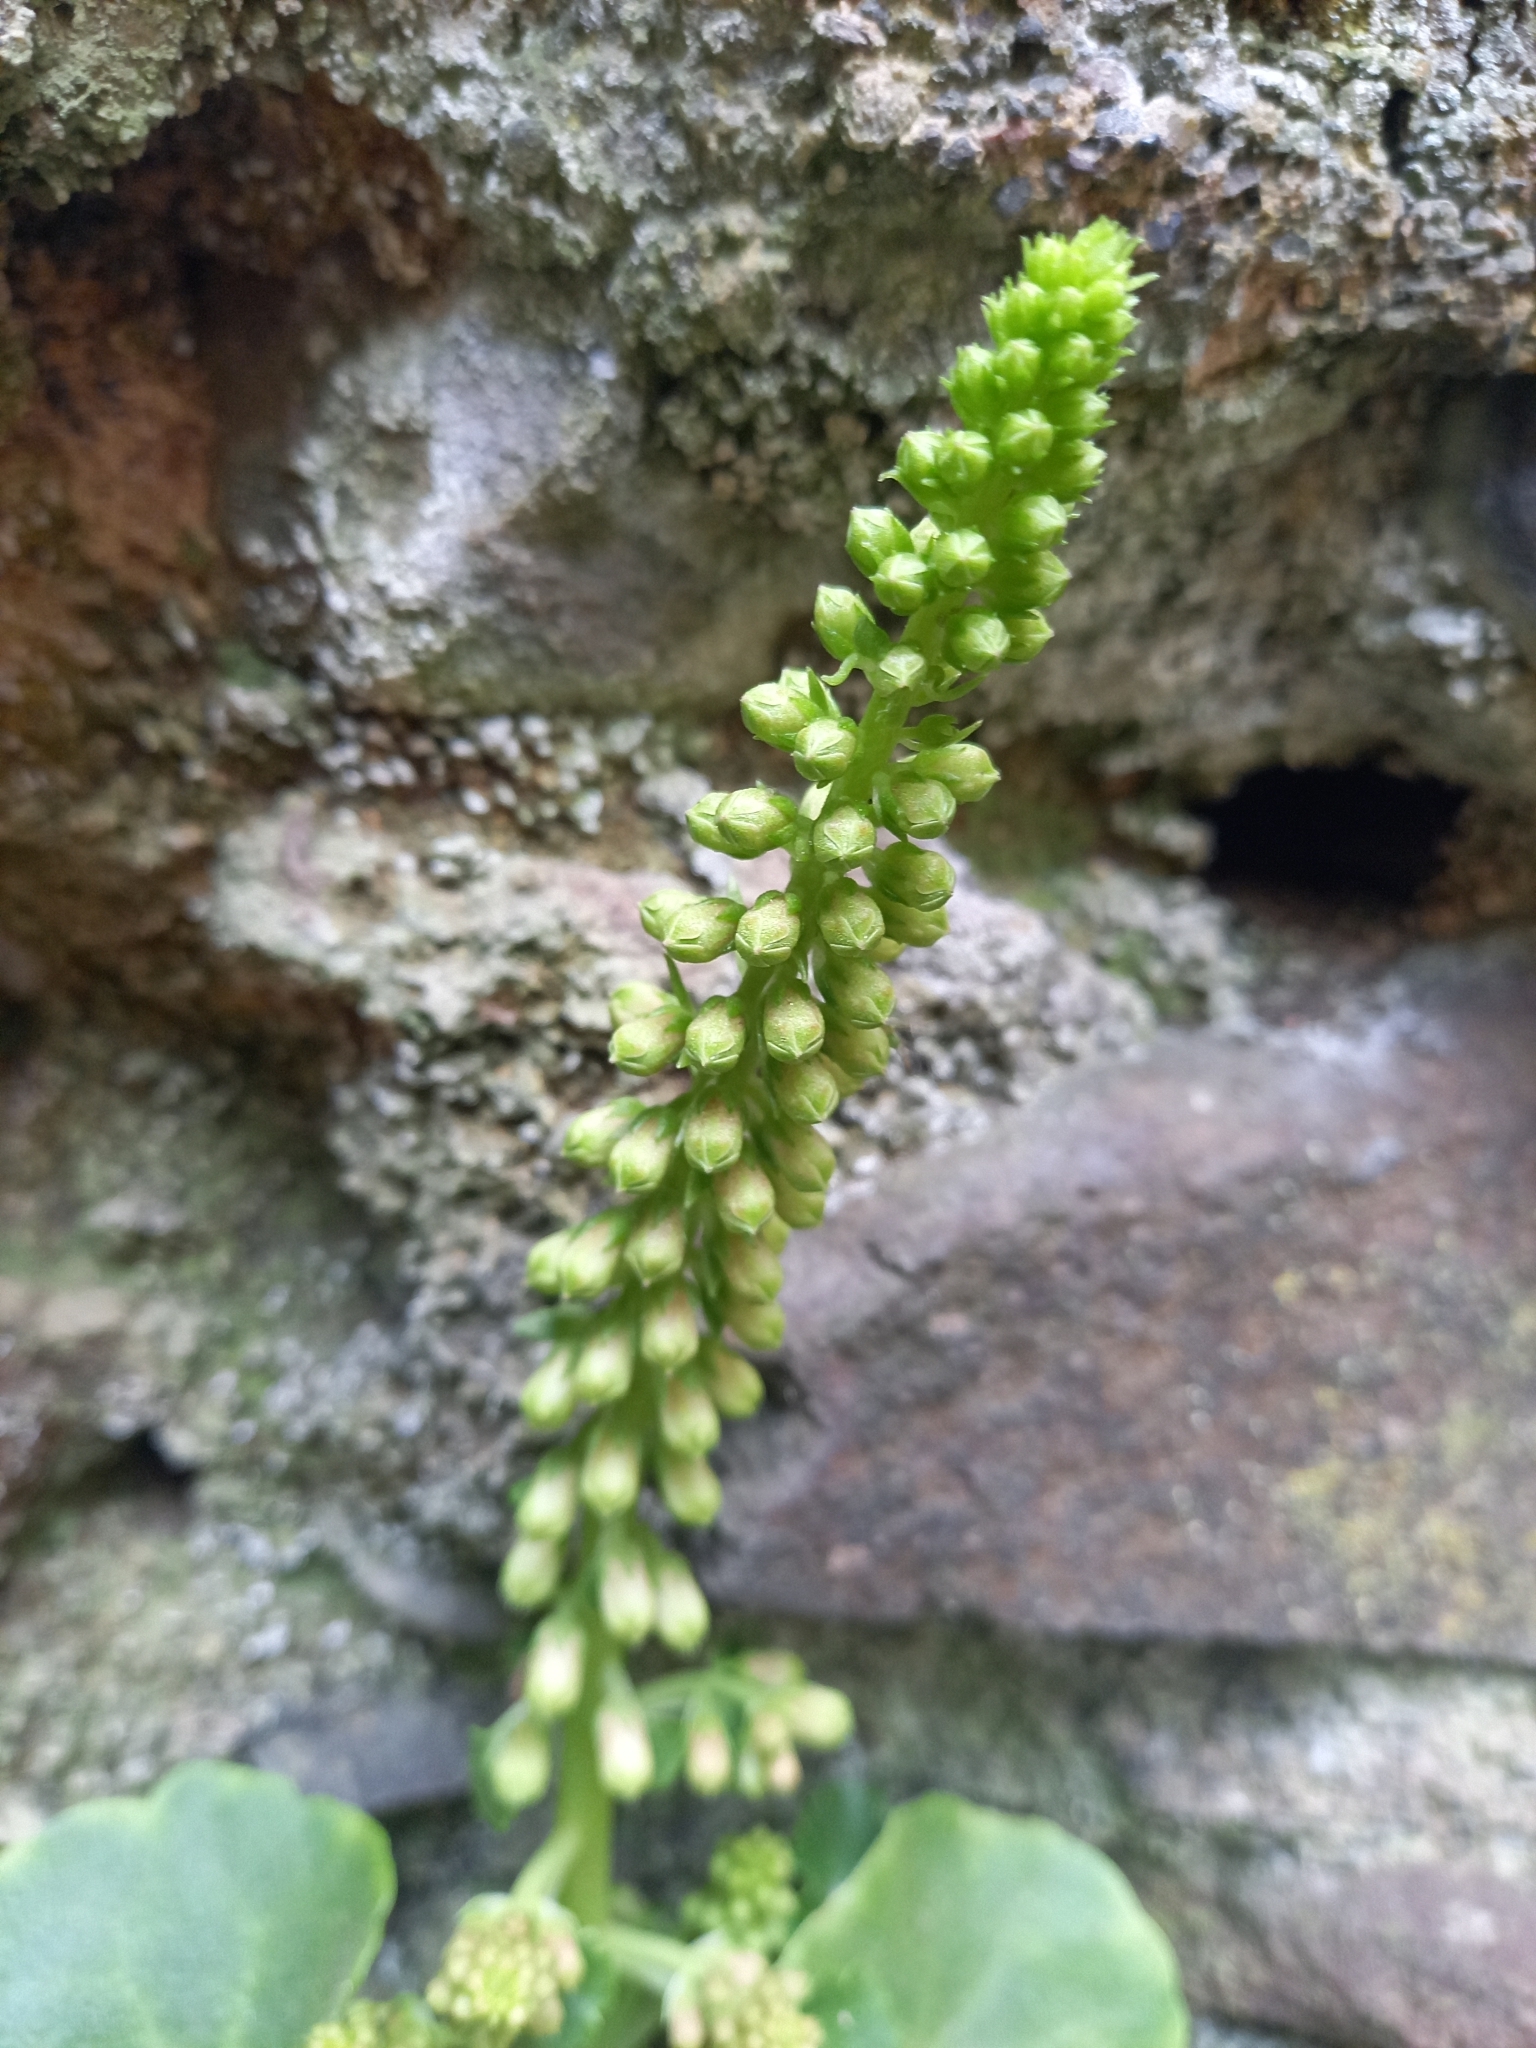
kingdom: Plantae
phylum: Tracheophyta
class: Magnoliopsida
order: Saxifragales
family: Crassulaceae
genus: Umbilicus
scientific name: Umbilicus rupestris
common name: Navelwort
